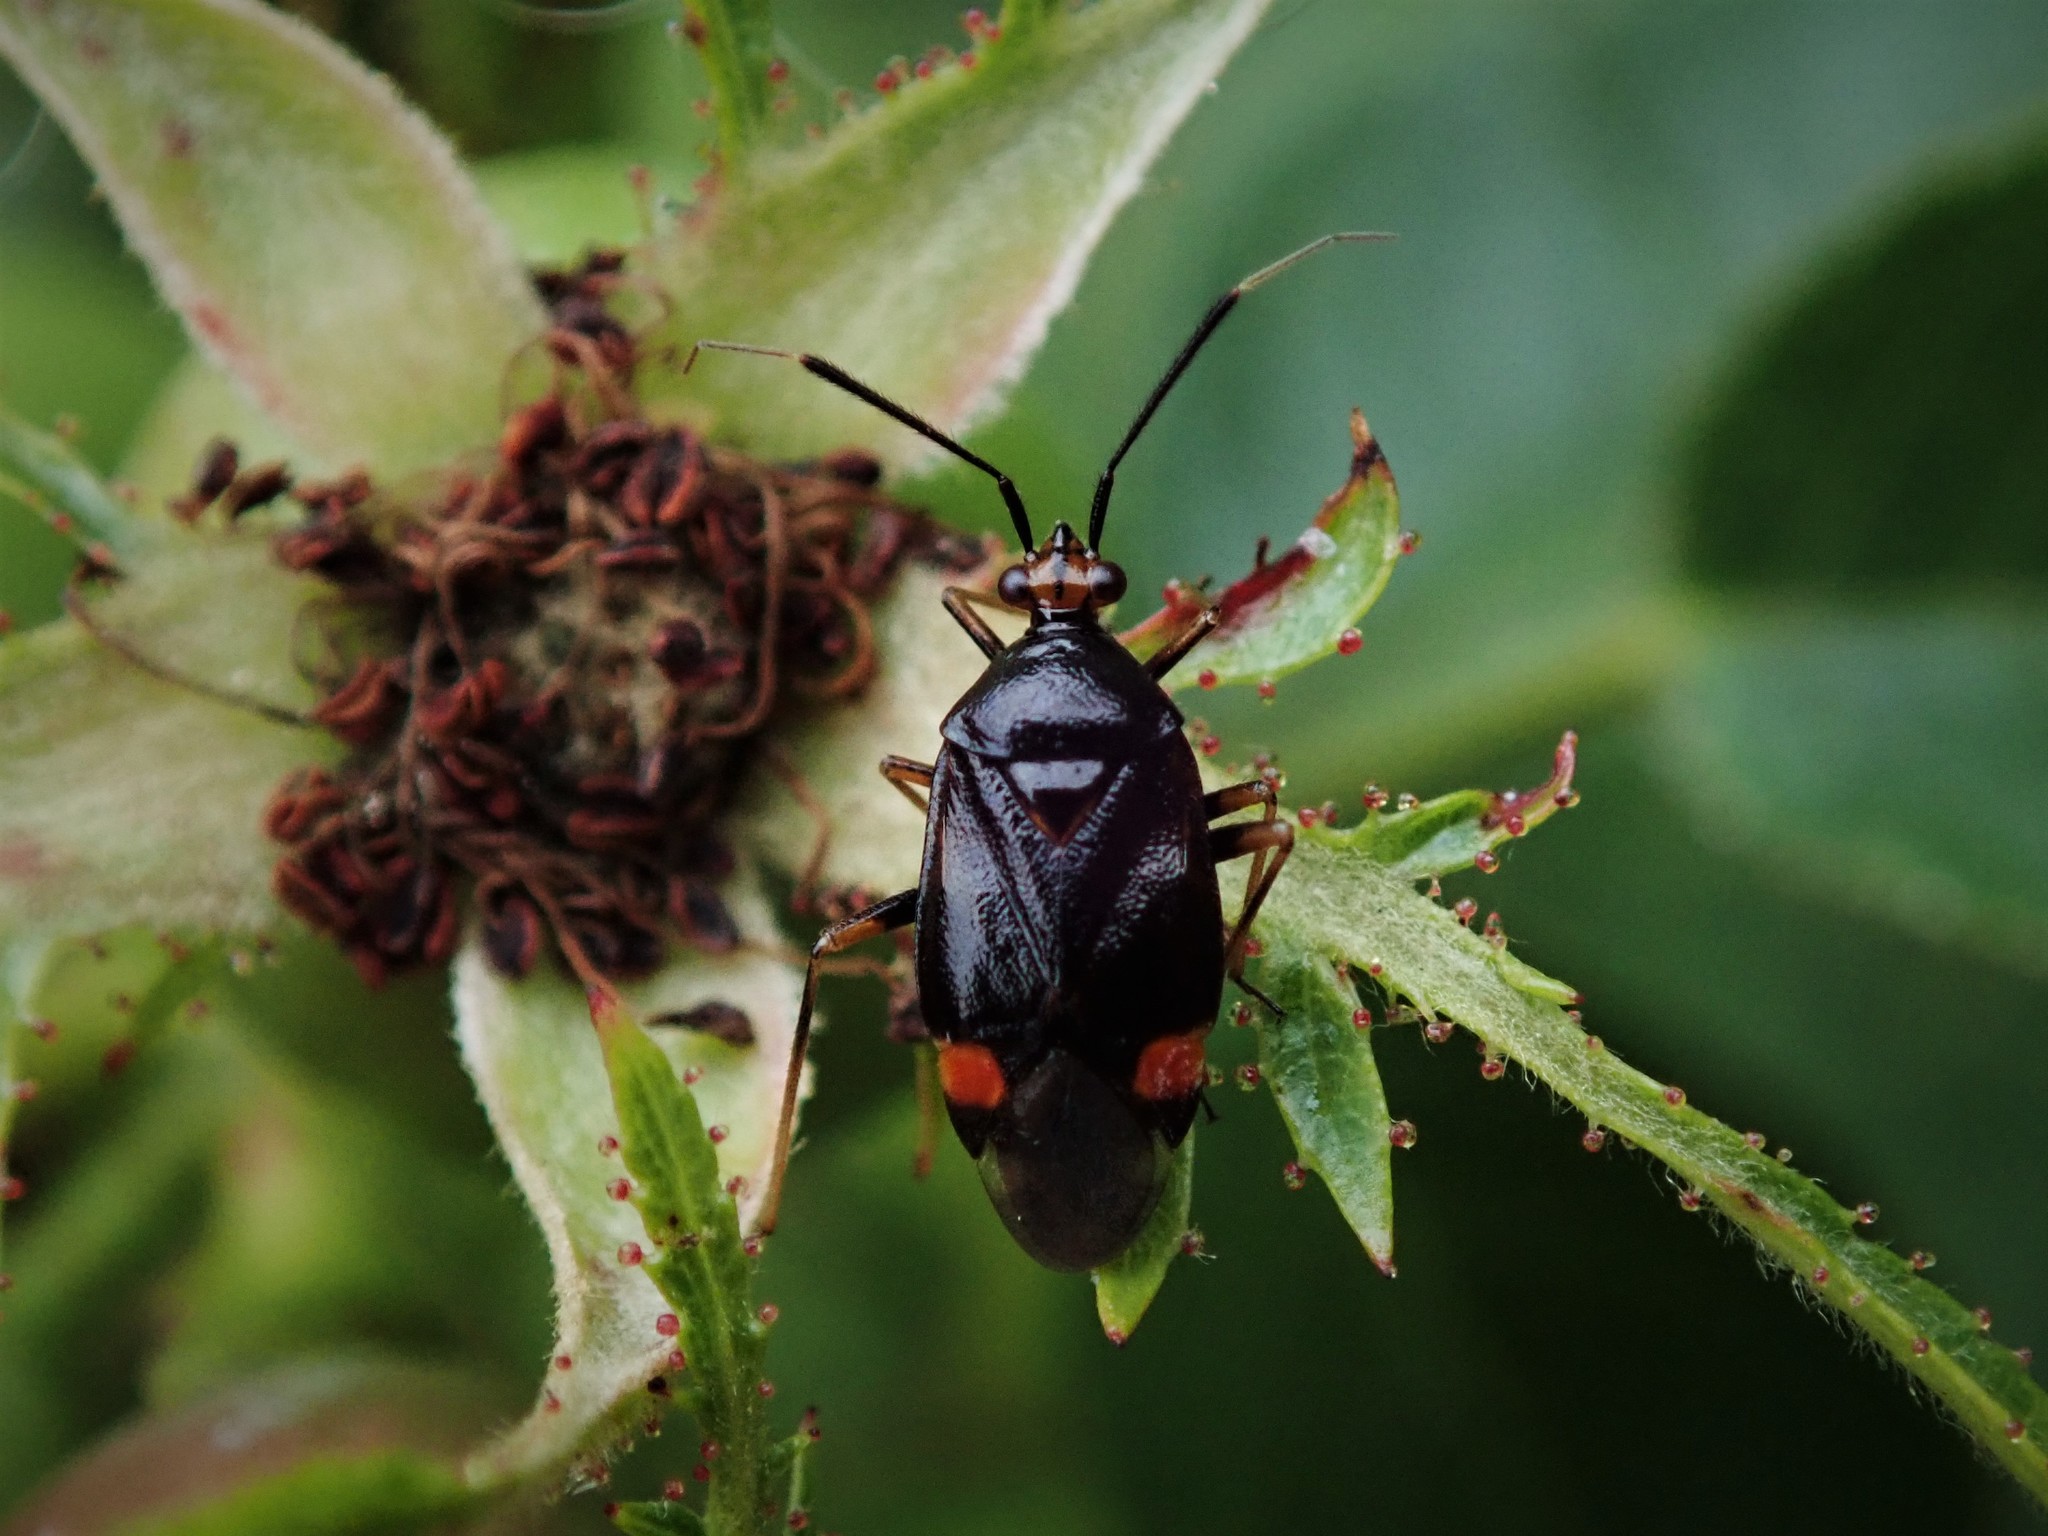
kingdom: Animalia
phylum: Arthropoda
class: Insecta
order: Hemiptera
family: Miridae
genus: Deraeocoris
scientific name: Deraeocoris ruber
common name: Plant bug
